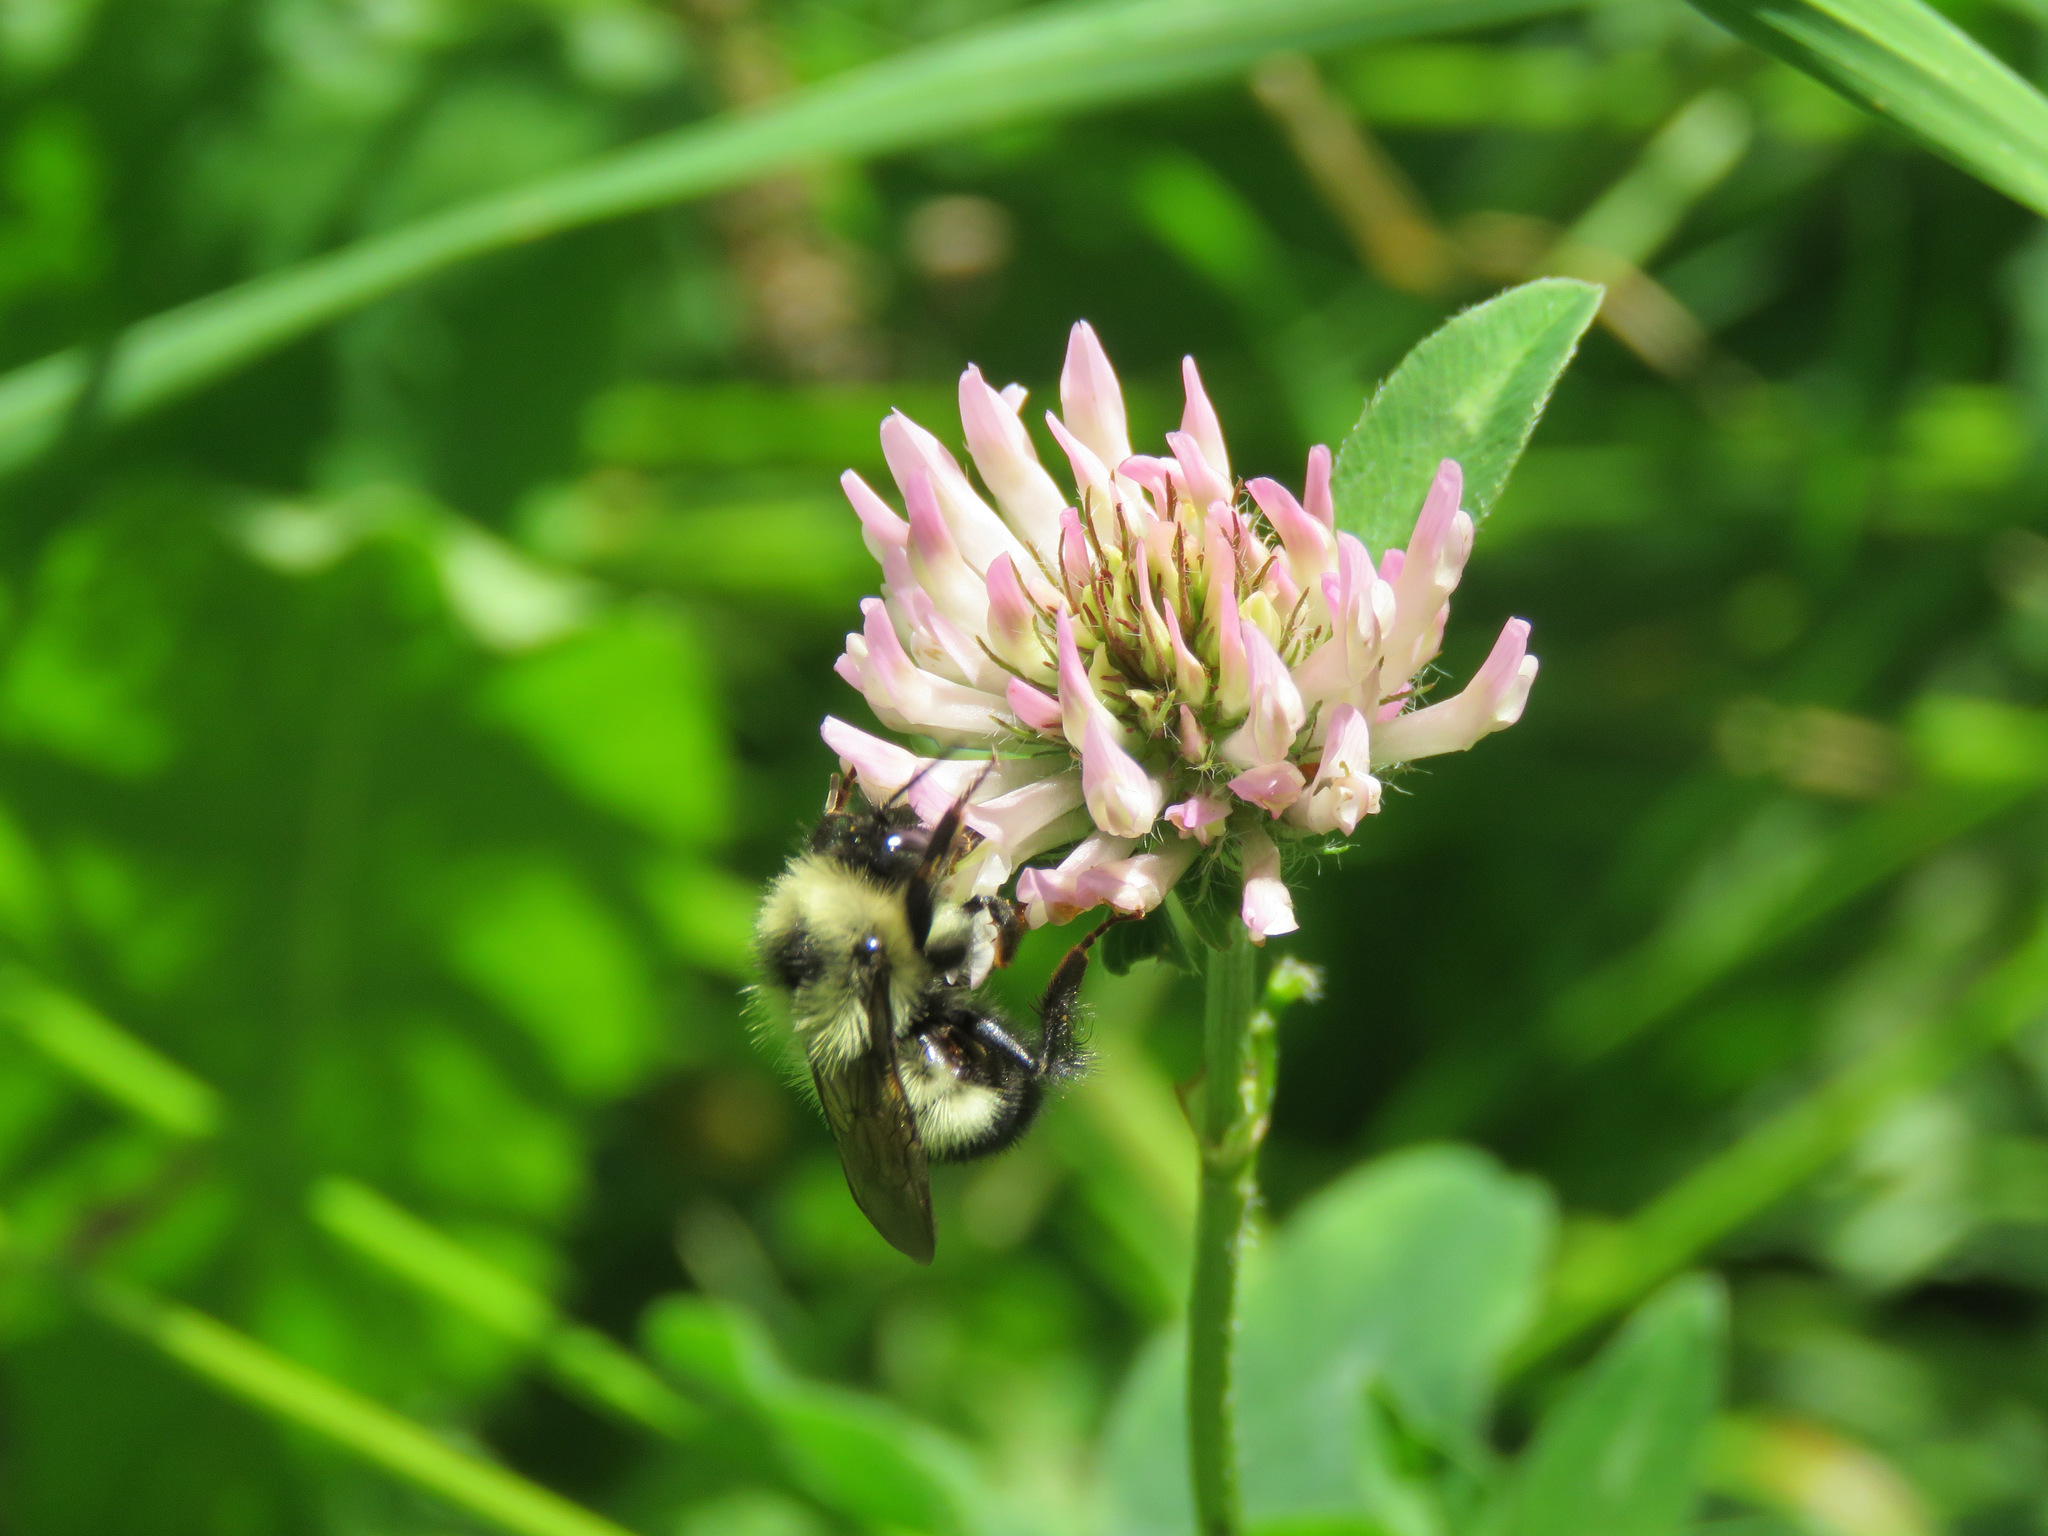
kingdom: Animalia
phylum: Arthropoda
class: Insecta
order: Hymenoptera
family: Apidae
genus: Bombus
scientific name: Bombus vagans
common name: Half-black bumble bee
